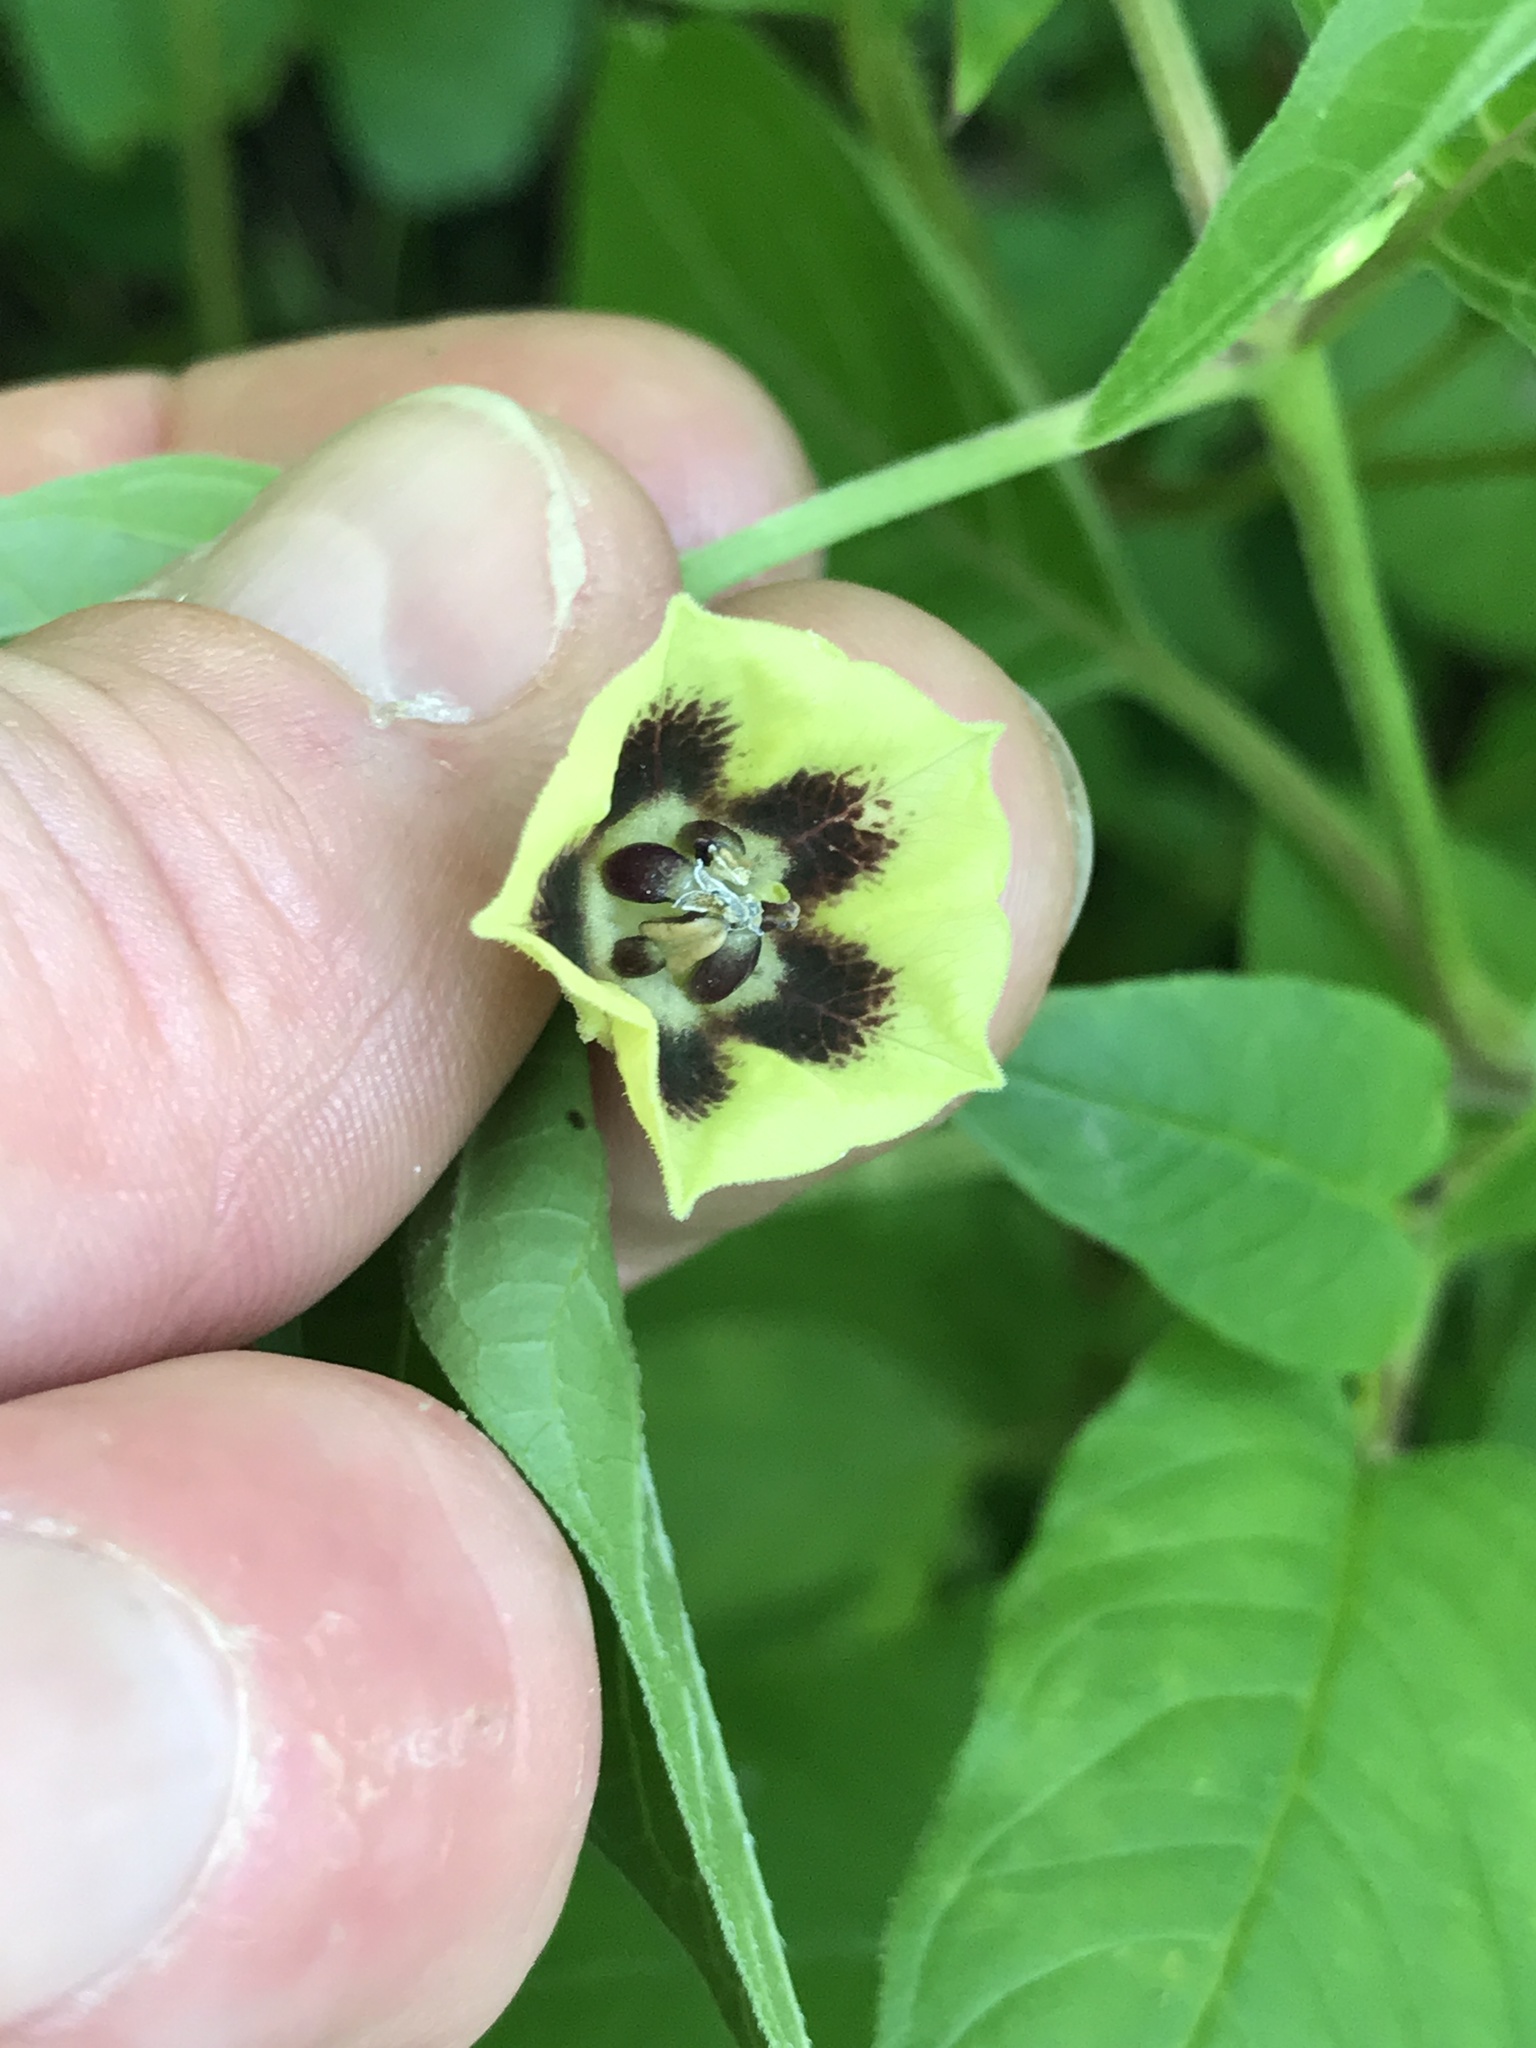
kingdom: Plantae
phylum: Tracheophyta
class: Magnoliopsida
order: Solanales
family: Solanaceae
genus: Physalis
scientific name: Physalis longifolia
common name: Common ground-cherry
